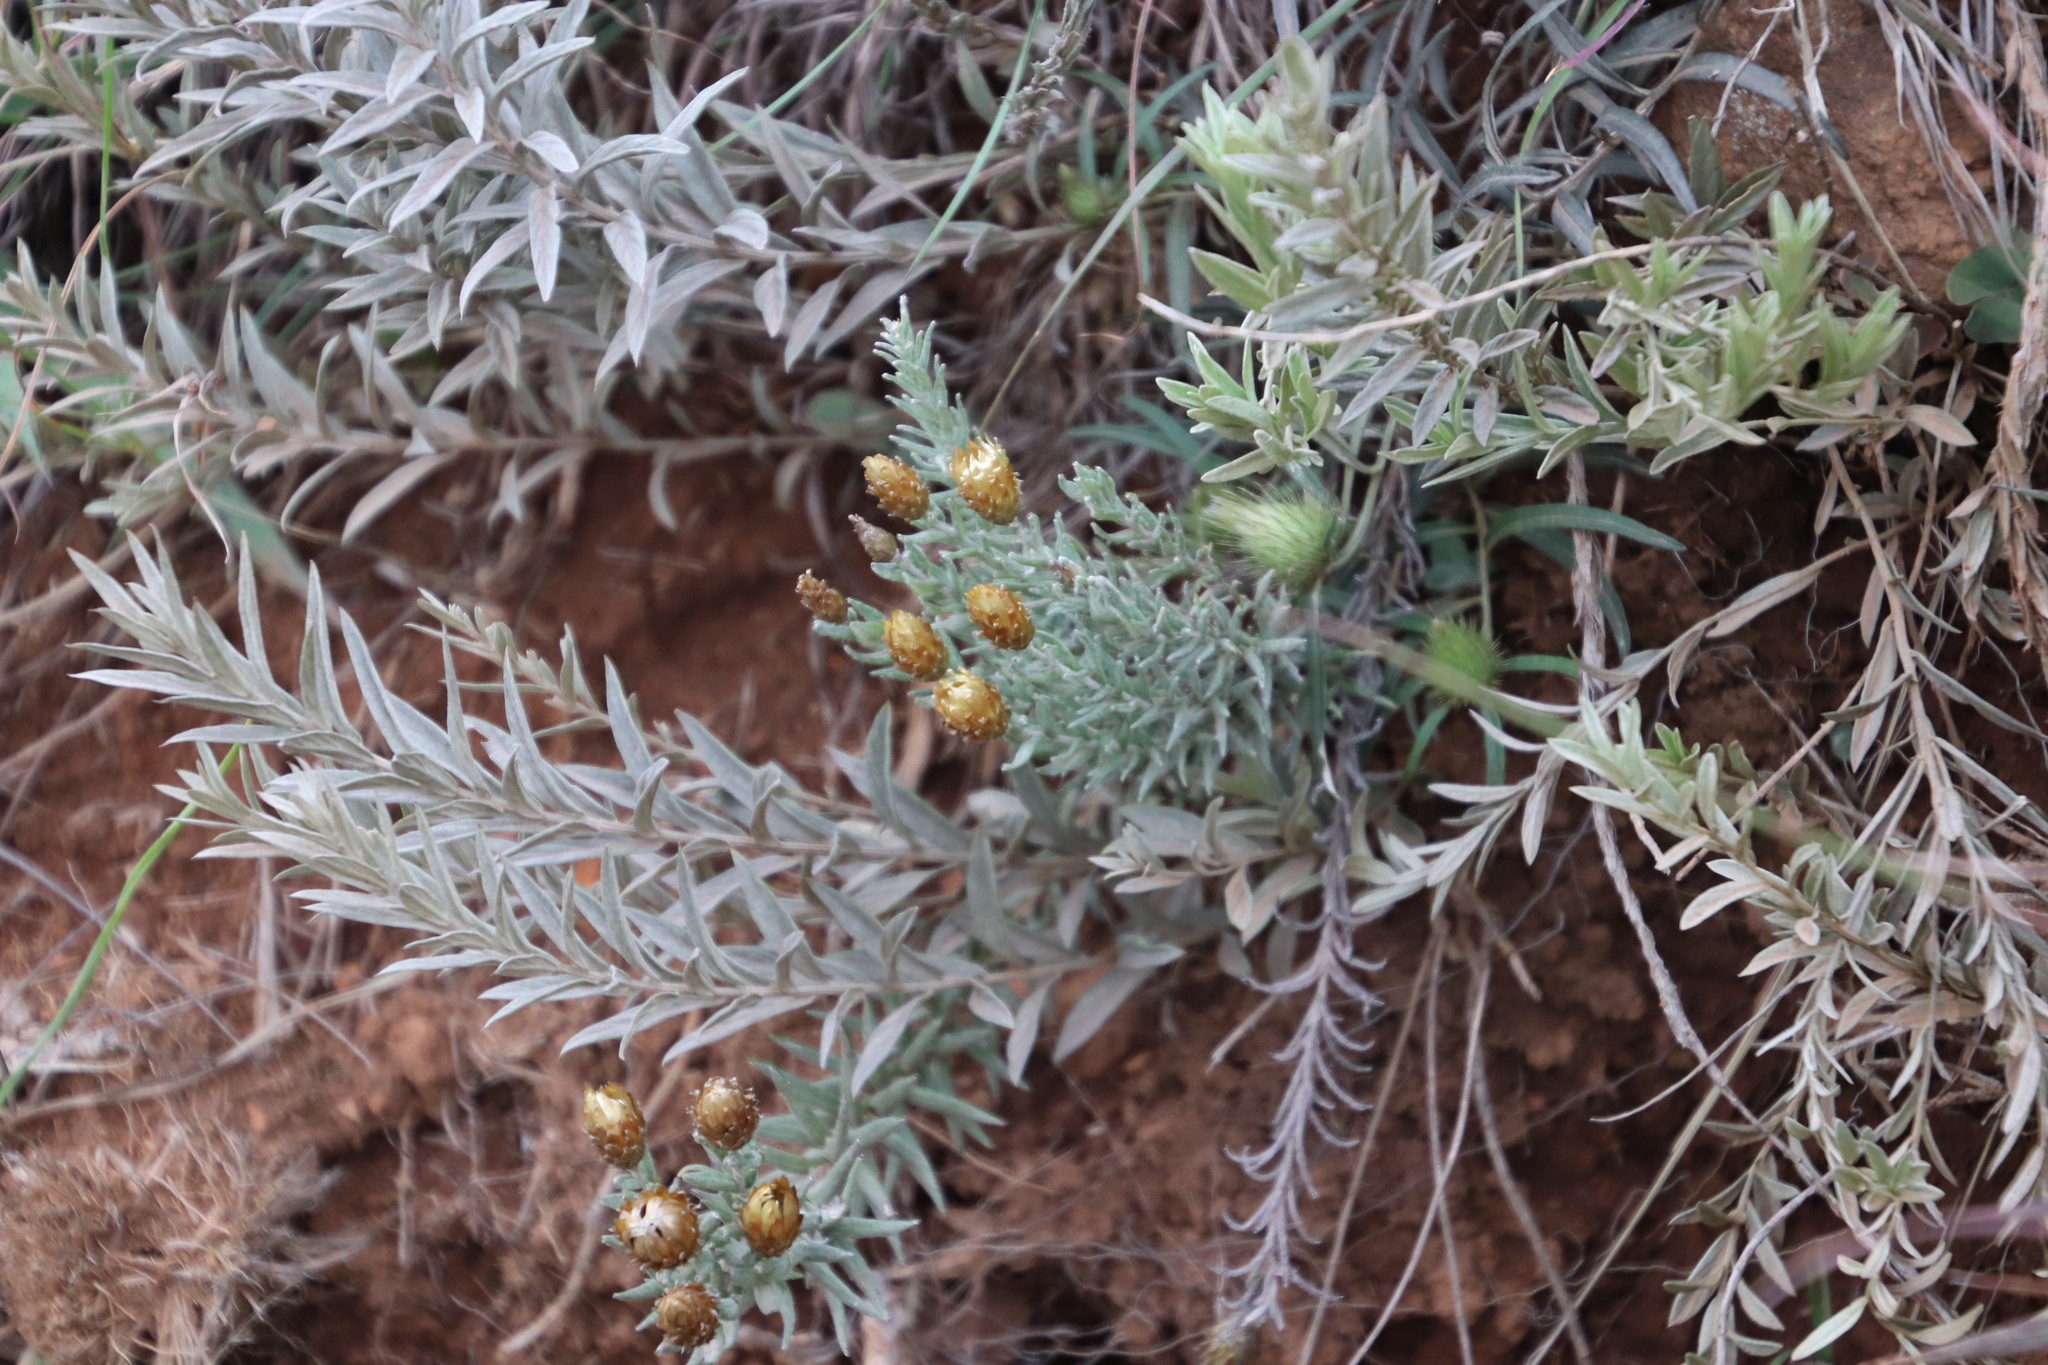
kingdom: Plantae
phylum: Tracheophyta
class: Magnoliopsida
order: Asterales
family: Asteraceae
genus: Helichrysum
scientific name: Helichrysum herbaceum
